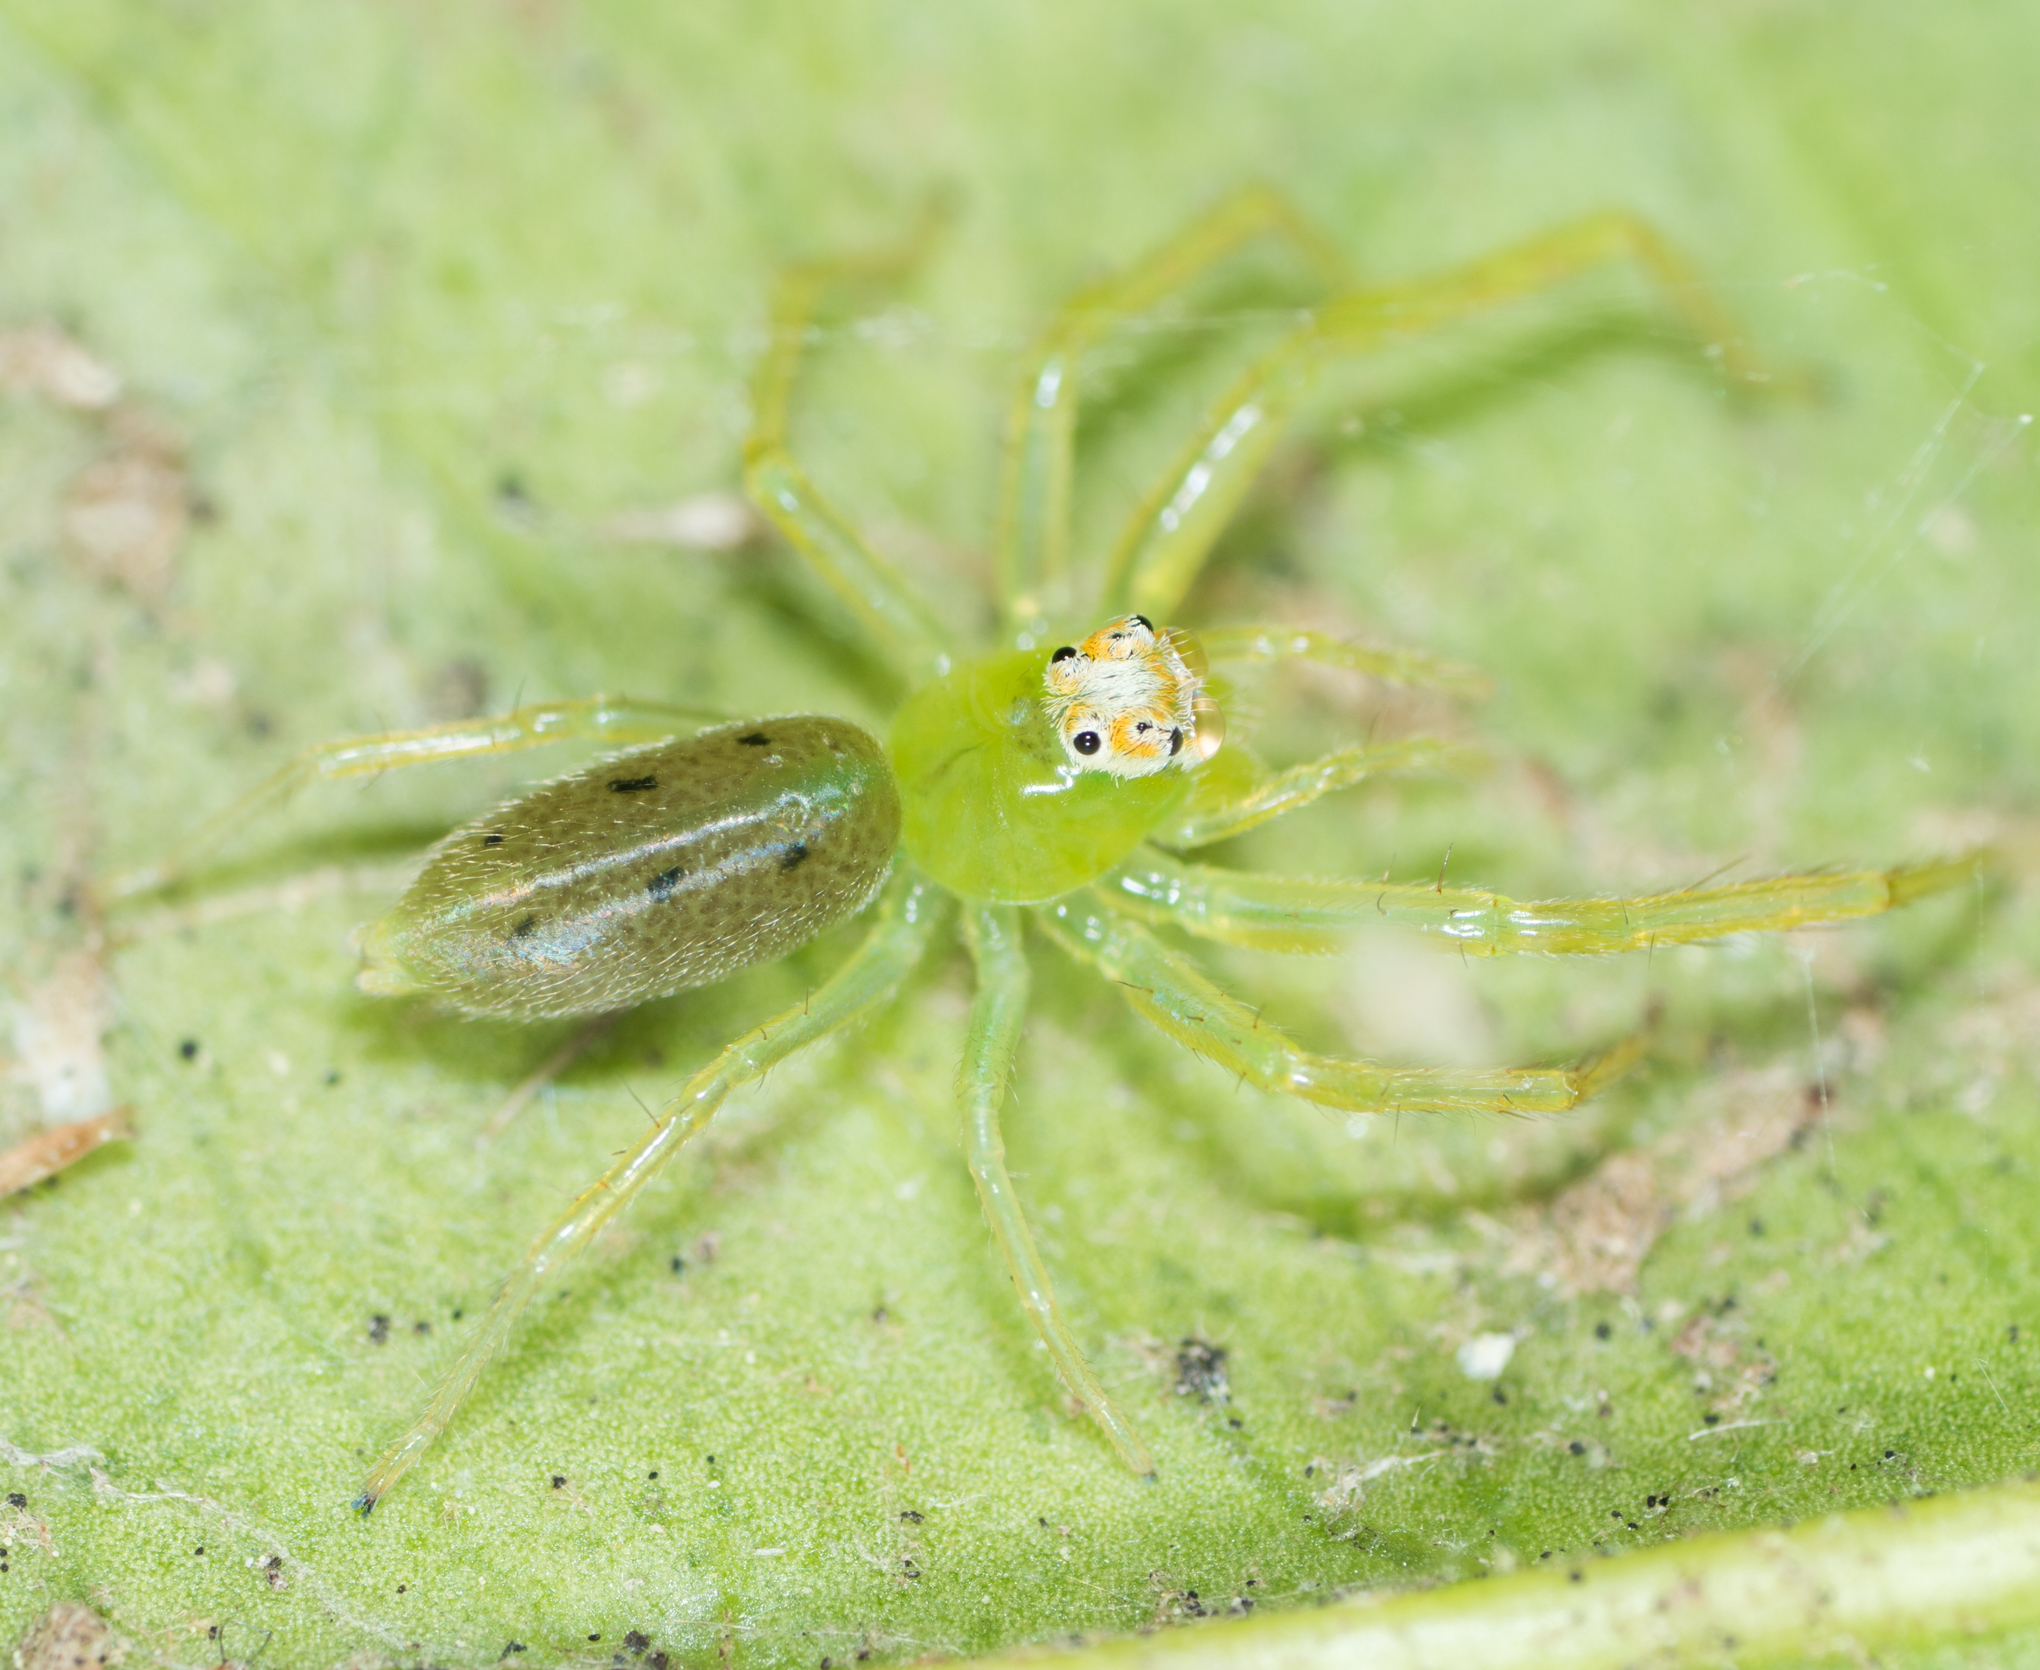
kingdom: Animalia
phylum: Arthropoda
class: Arachnida
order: Araneae
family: Salticidae
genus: Lyssomanes
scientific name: Lyssomanes viridis
